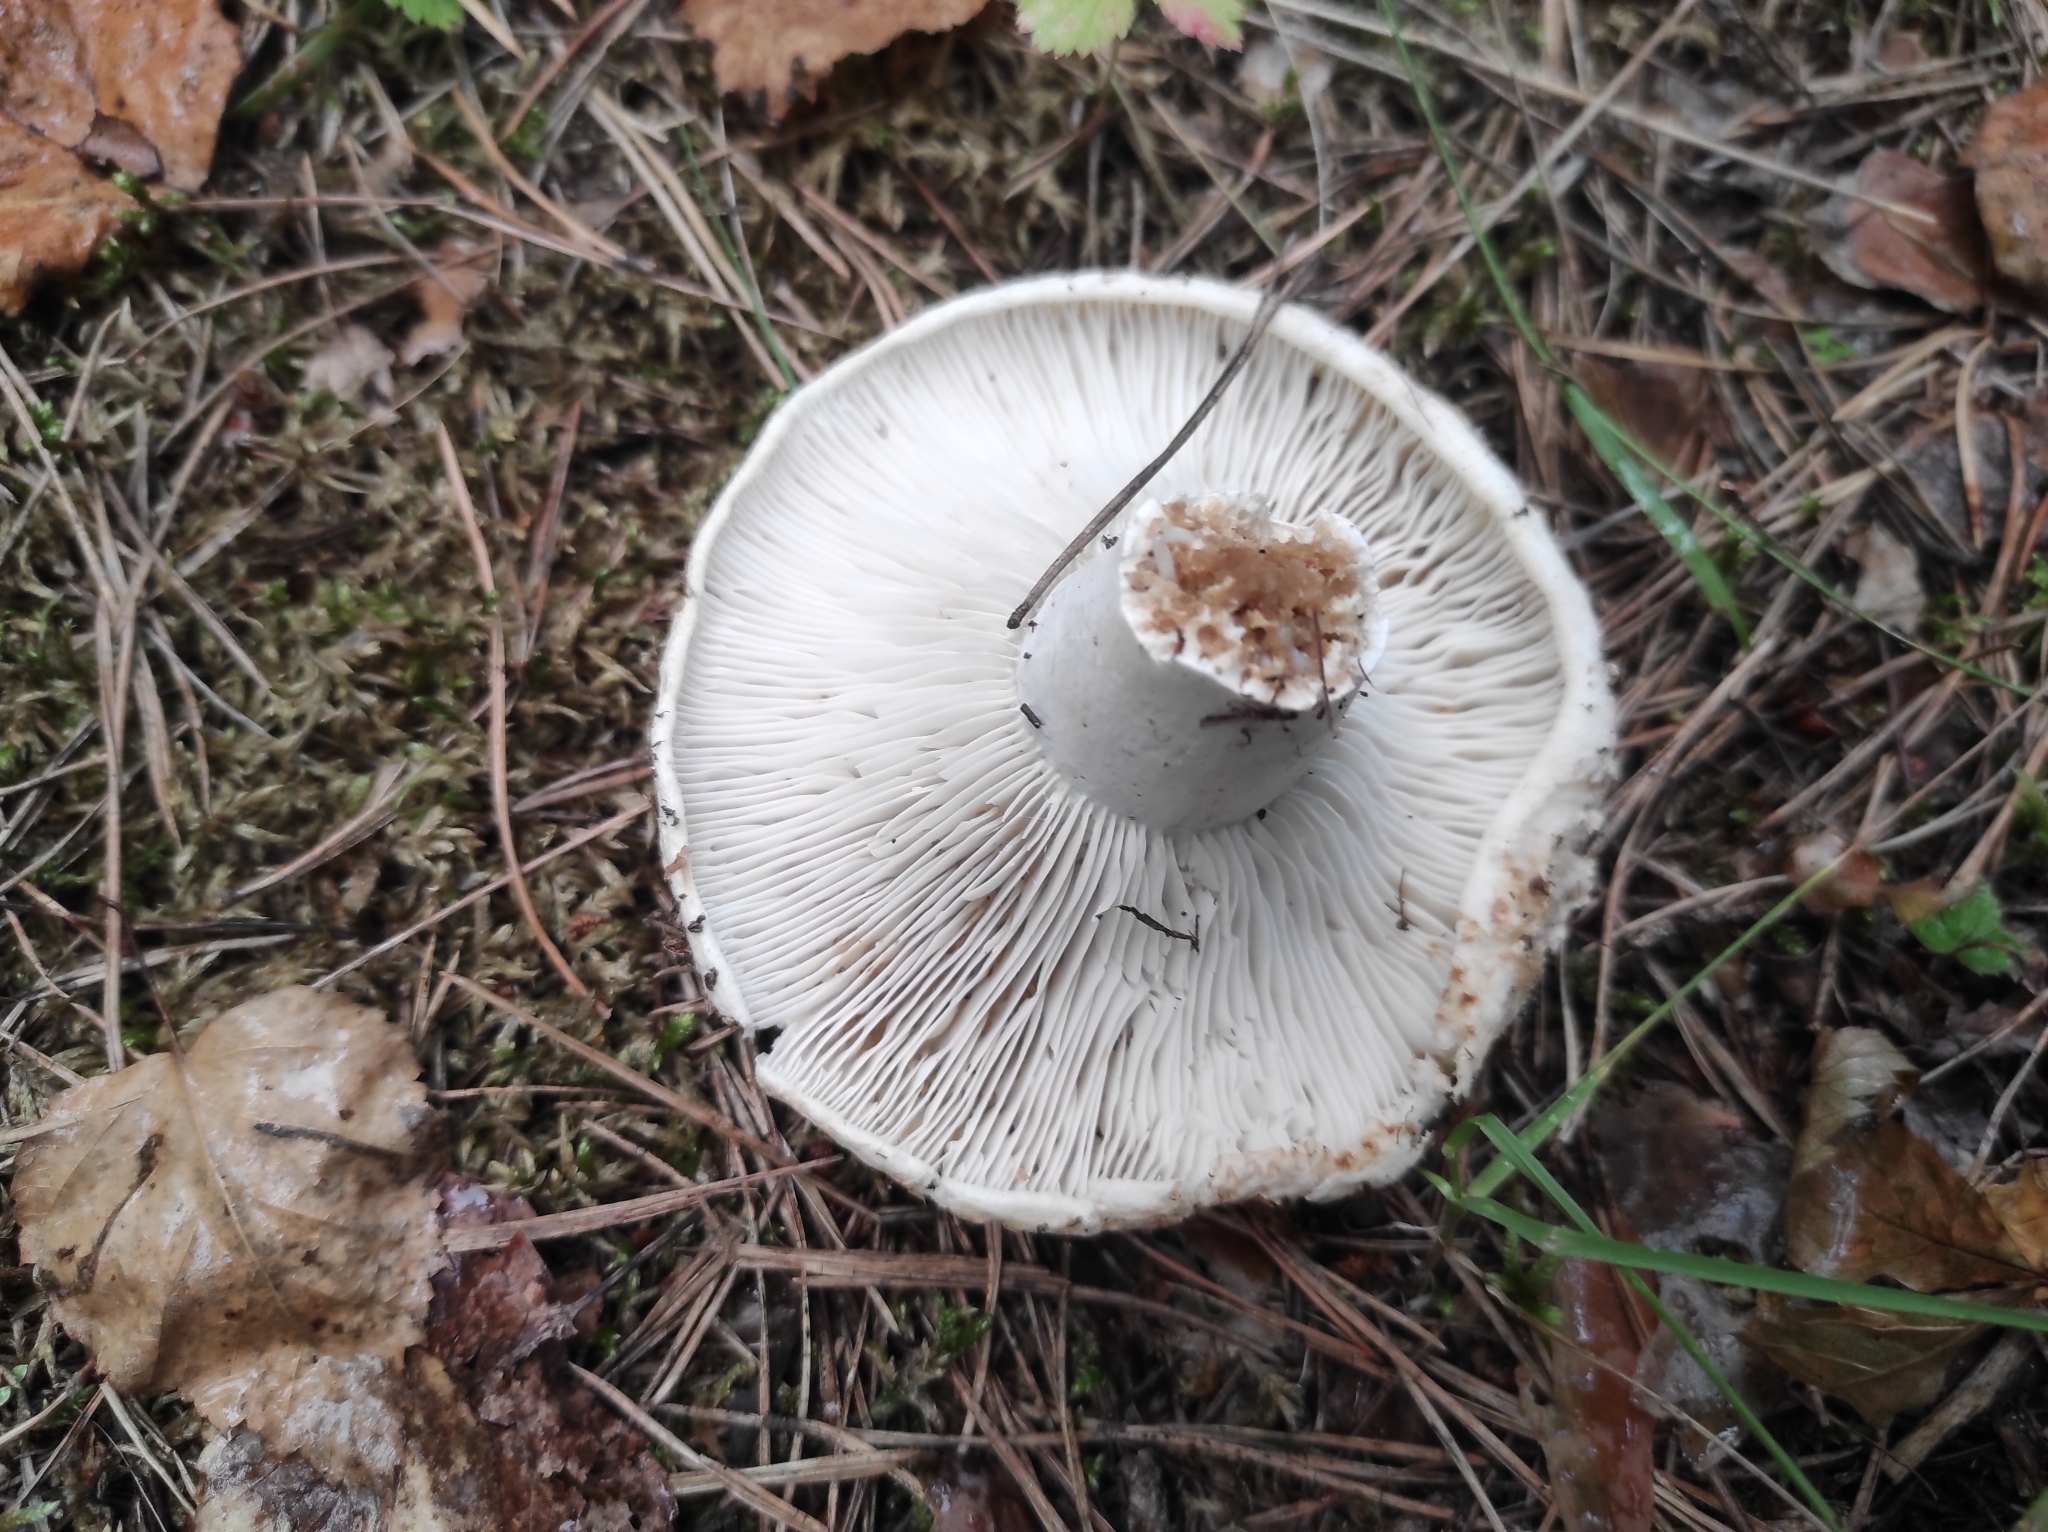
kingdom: Fungi
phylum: Basidiomycota
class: Agaricomycetes
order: Russulales
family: Russulaceae
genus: Russula
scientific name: Russula delica
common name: Milk white brittlegill
